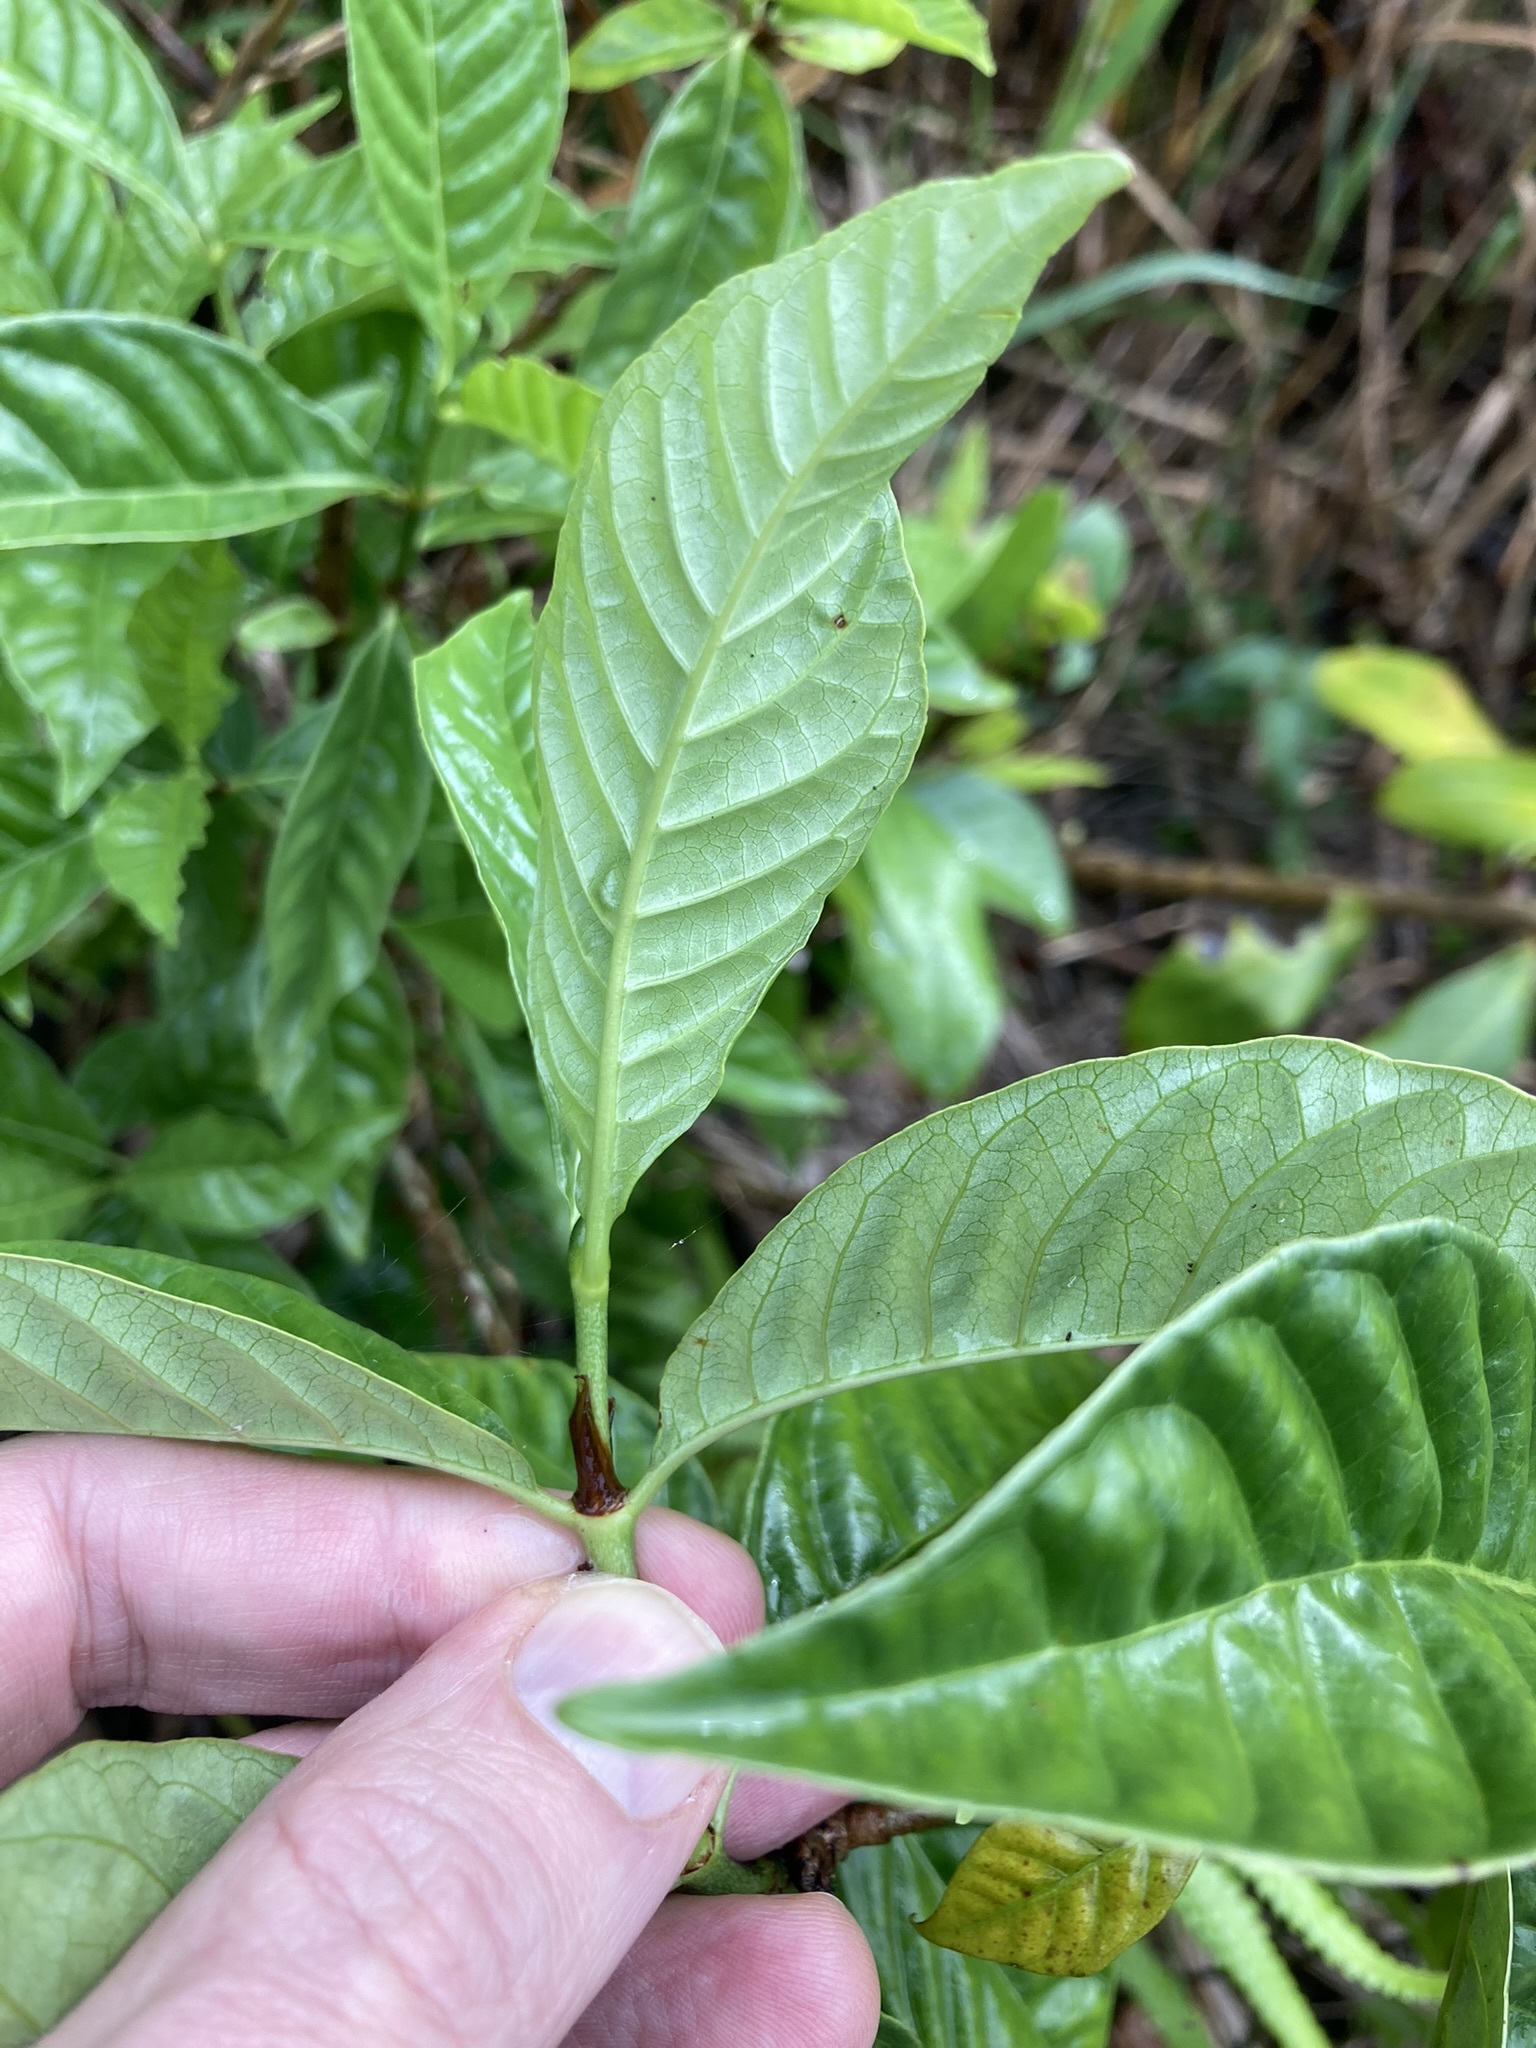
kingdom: Plantae
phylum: Tracheophyta
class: Magnoliopsida
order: Gentianales
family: Rubiaceae
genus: Psychotria
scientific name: Psychotria nervosa
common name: Bastard cankerberry
